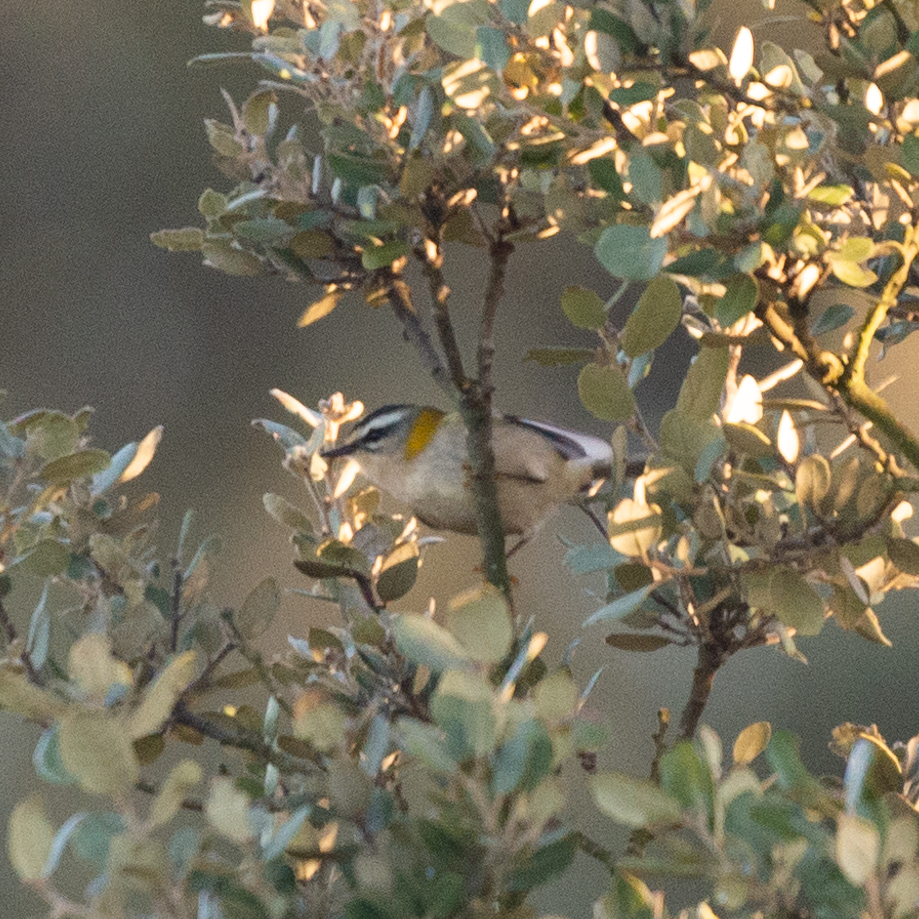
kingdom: Animalia
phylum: Chordata
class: Aves
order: Passeriformes
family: Regulidae
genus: Regulus
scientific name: Regulus ignicapilla
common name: Firecrest
